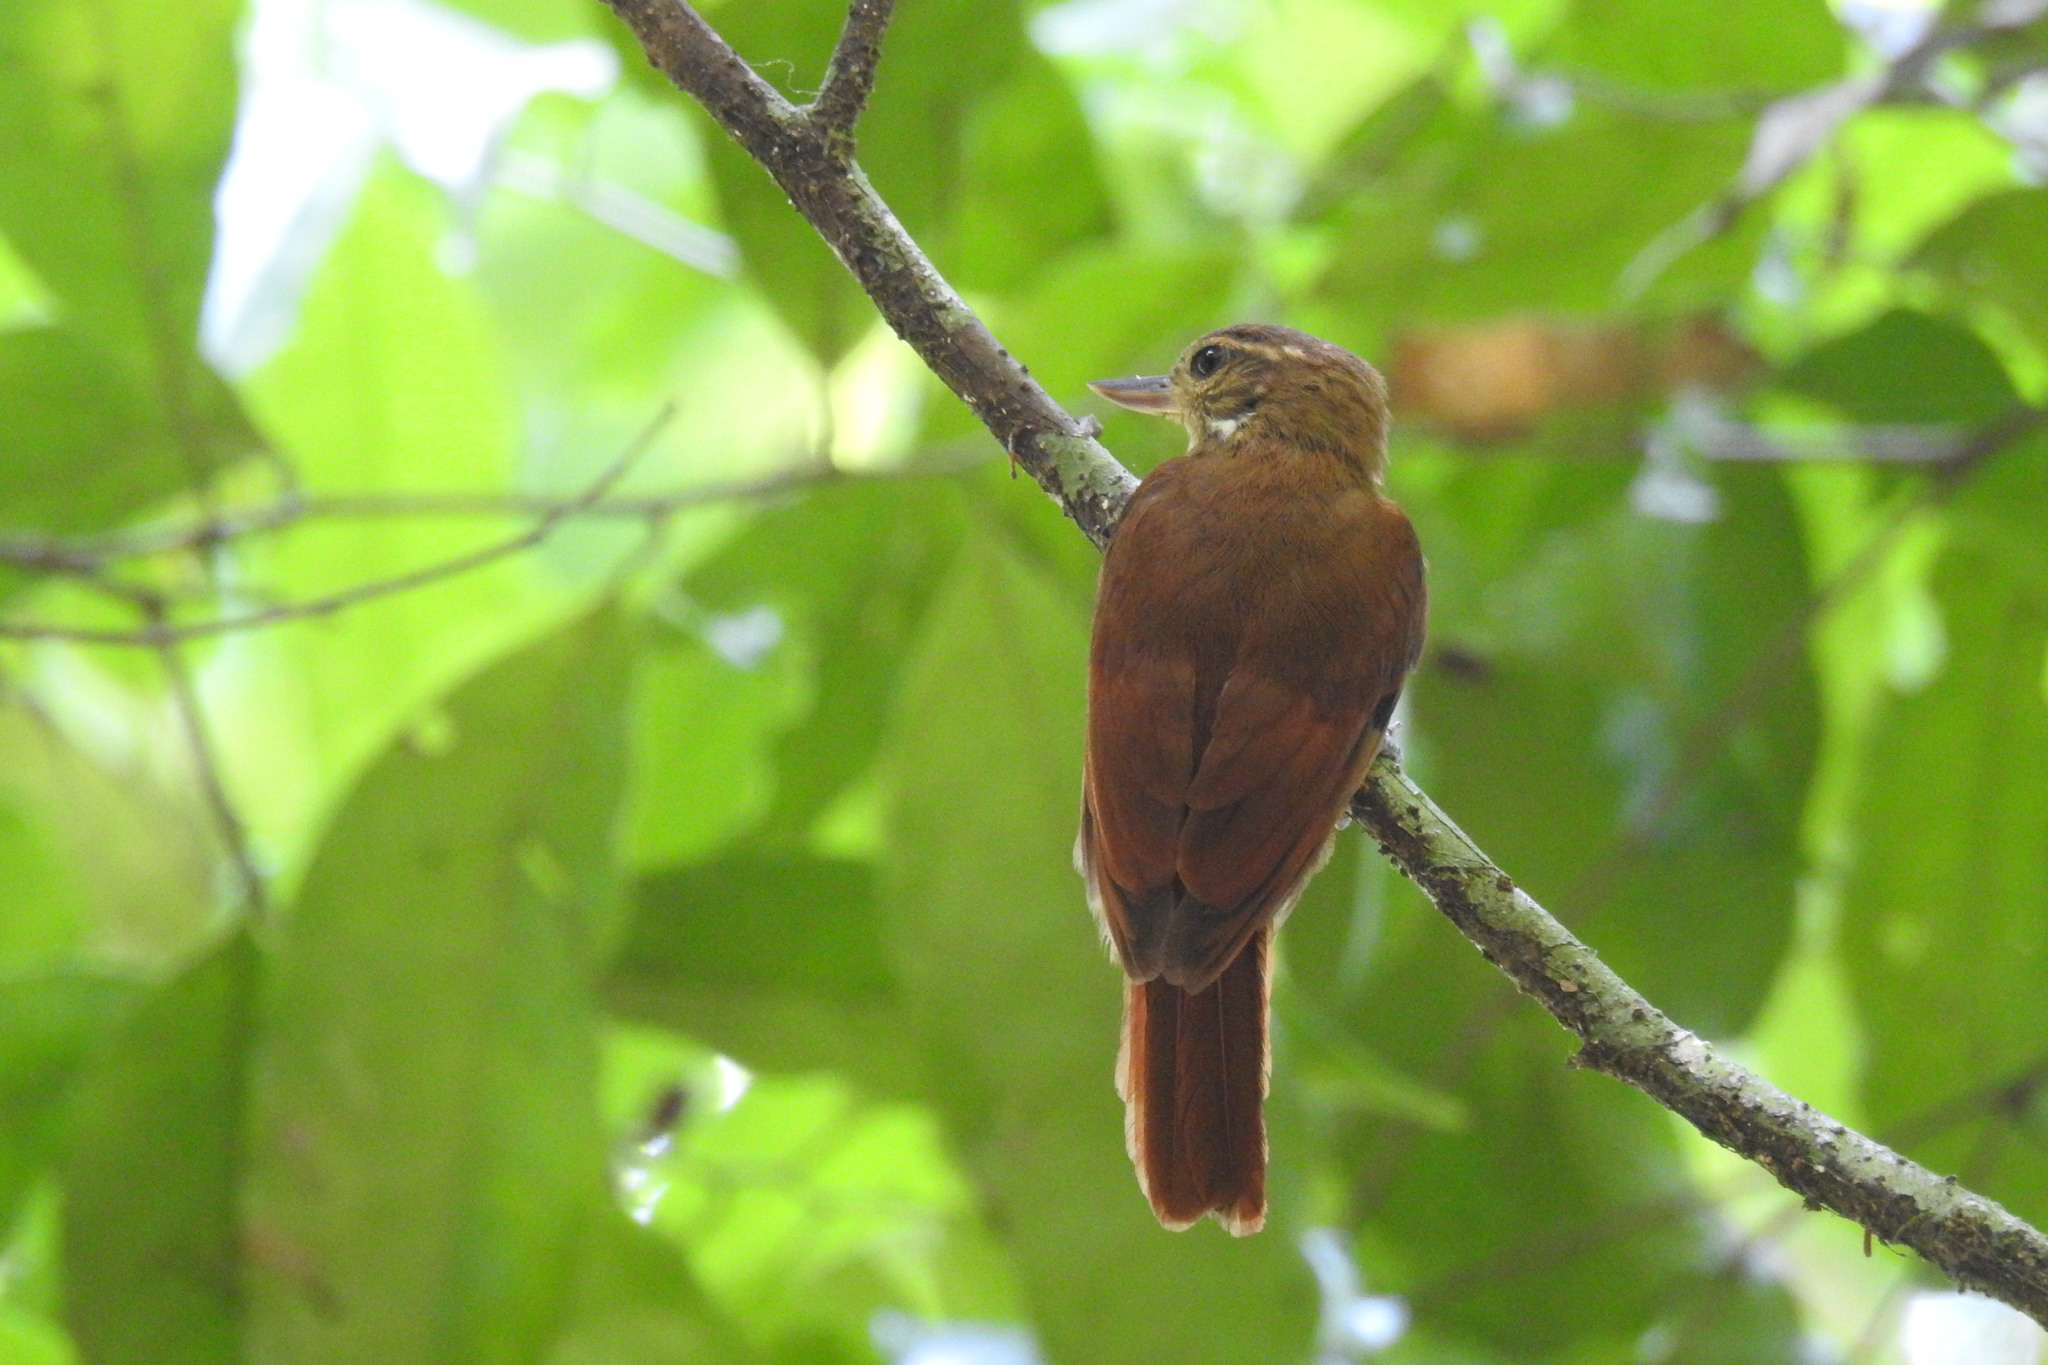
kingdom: Animalia
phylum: Chordata
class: Aves
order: Passeriformes
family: Furnariidae
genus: Glyphorynchus
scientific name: Glyphorynchus spirurus
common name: Wedge-billed woodcreeper
